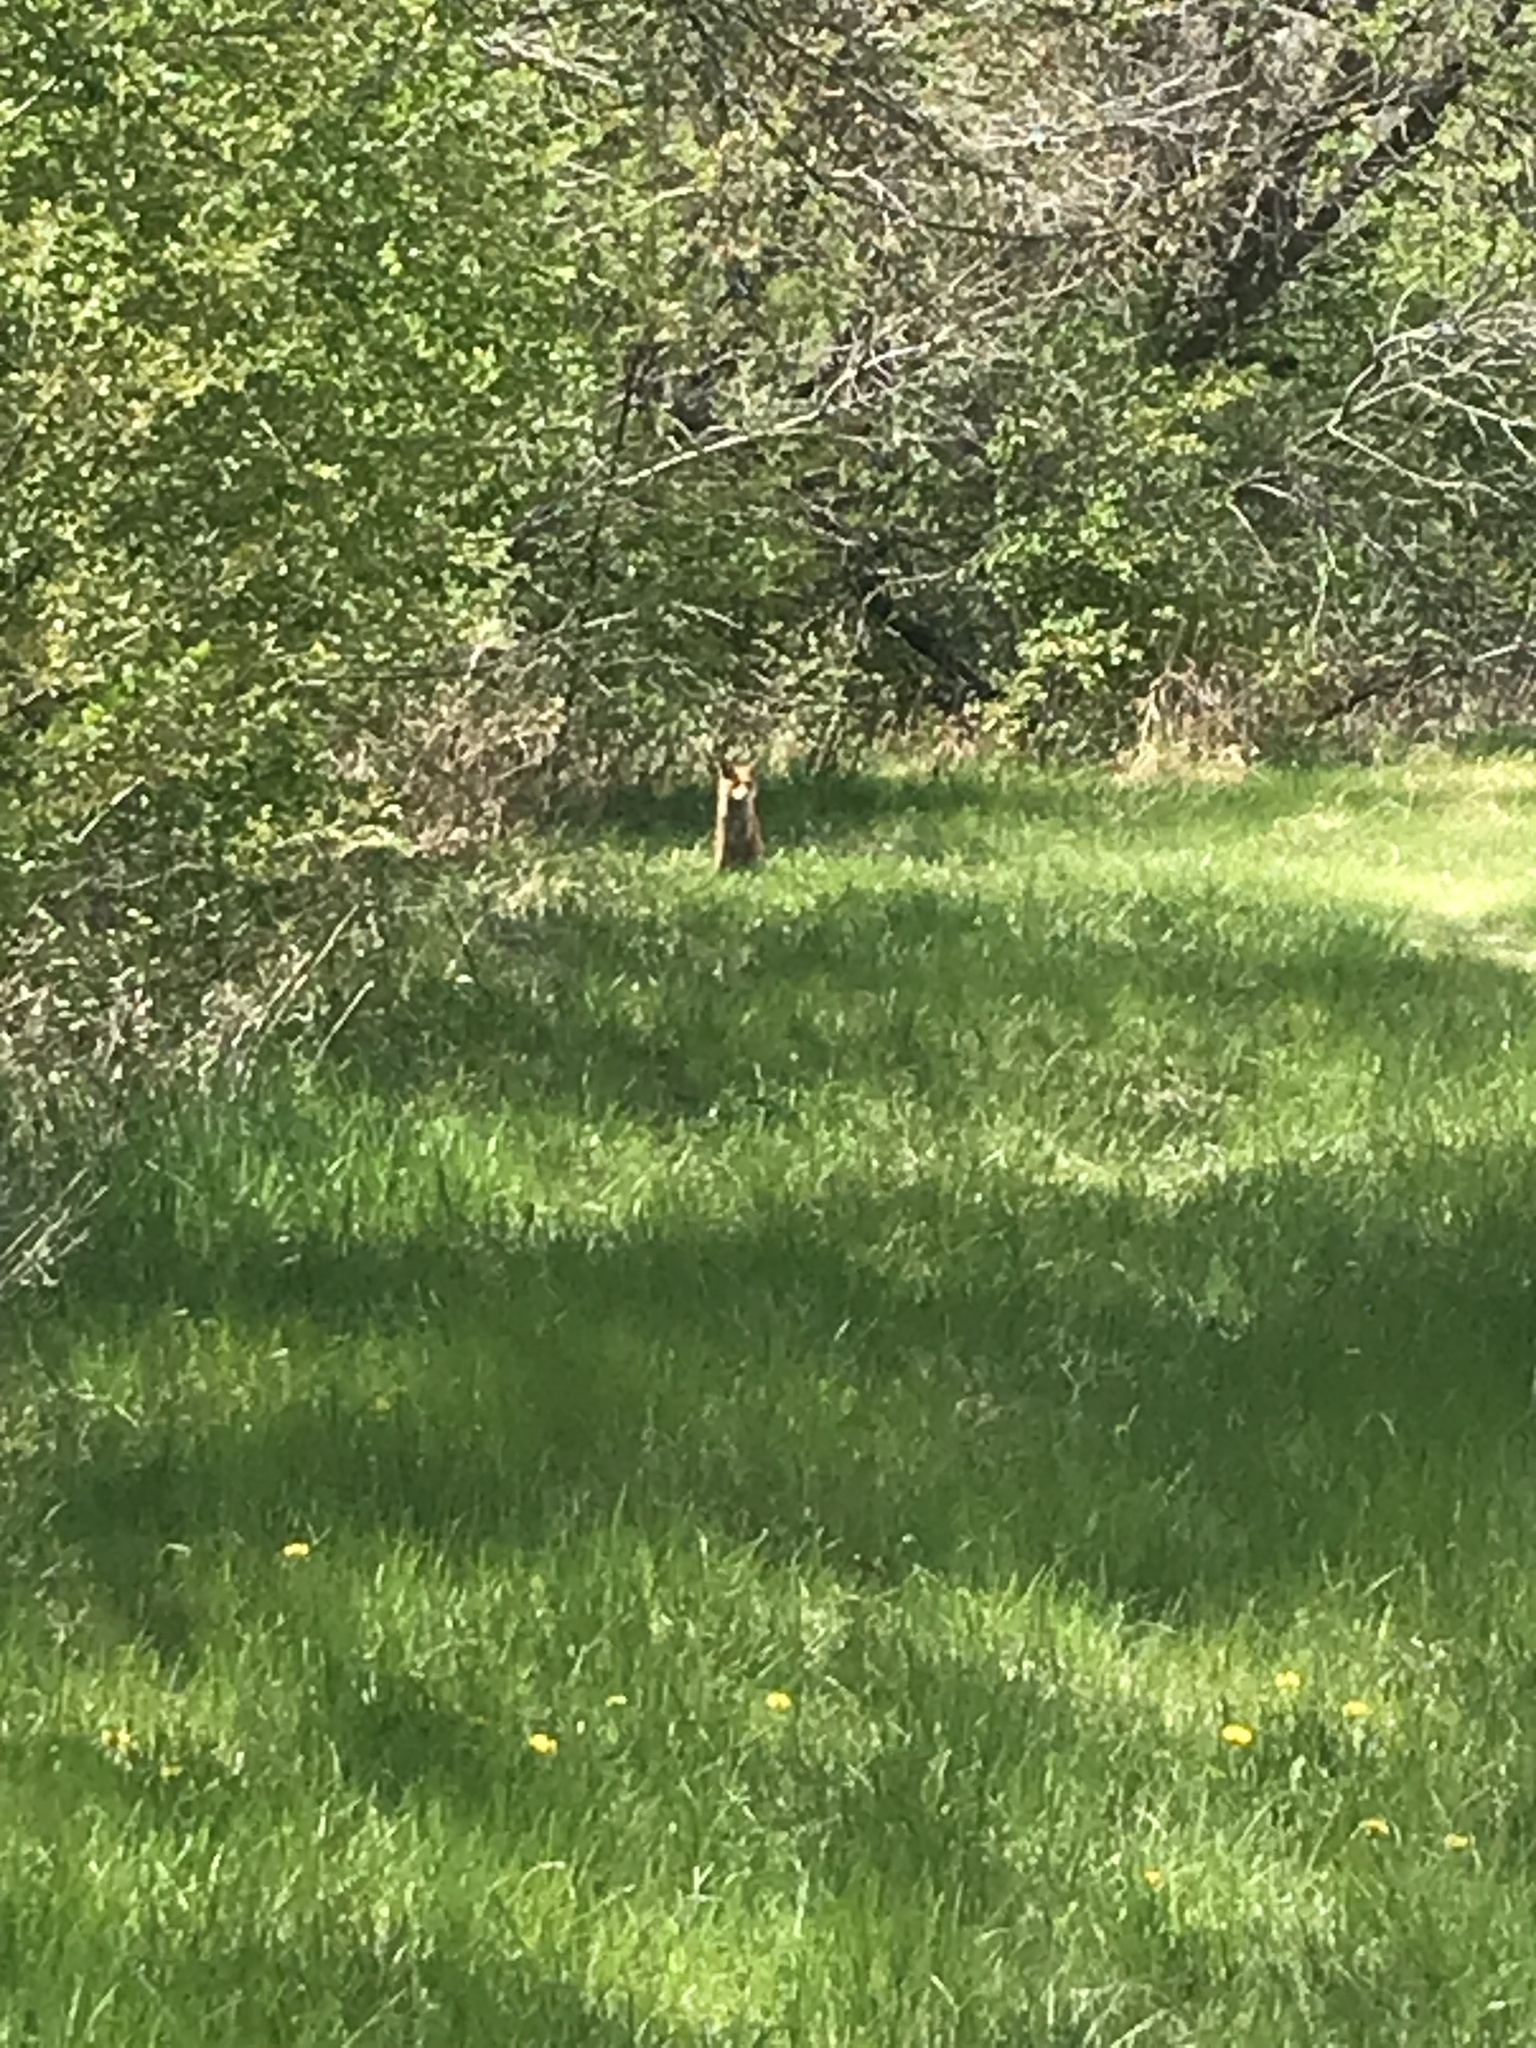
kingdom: Animalia
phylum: Chordata
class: Mammalia
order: Carnivora
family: Canidae
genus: Vulpes
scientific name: Vulpes vulpes
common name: Red fox
